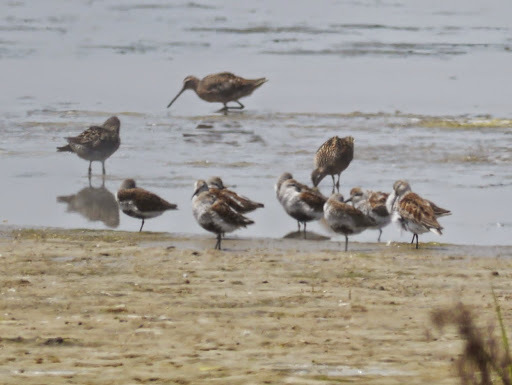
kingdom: Animalia
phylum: Chordata
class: Aves
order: Charadriiformes
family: Scolopacidae
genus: Calidris
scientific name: Calidris alpina
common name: Dunlin
